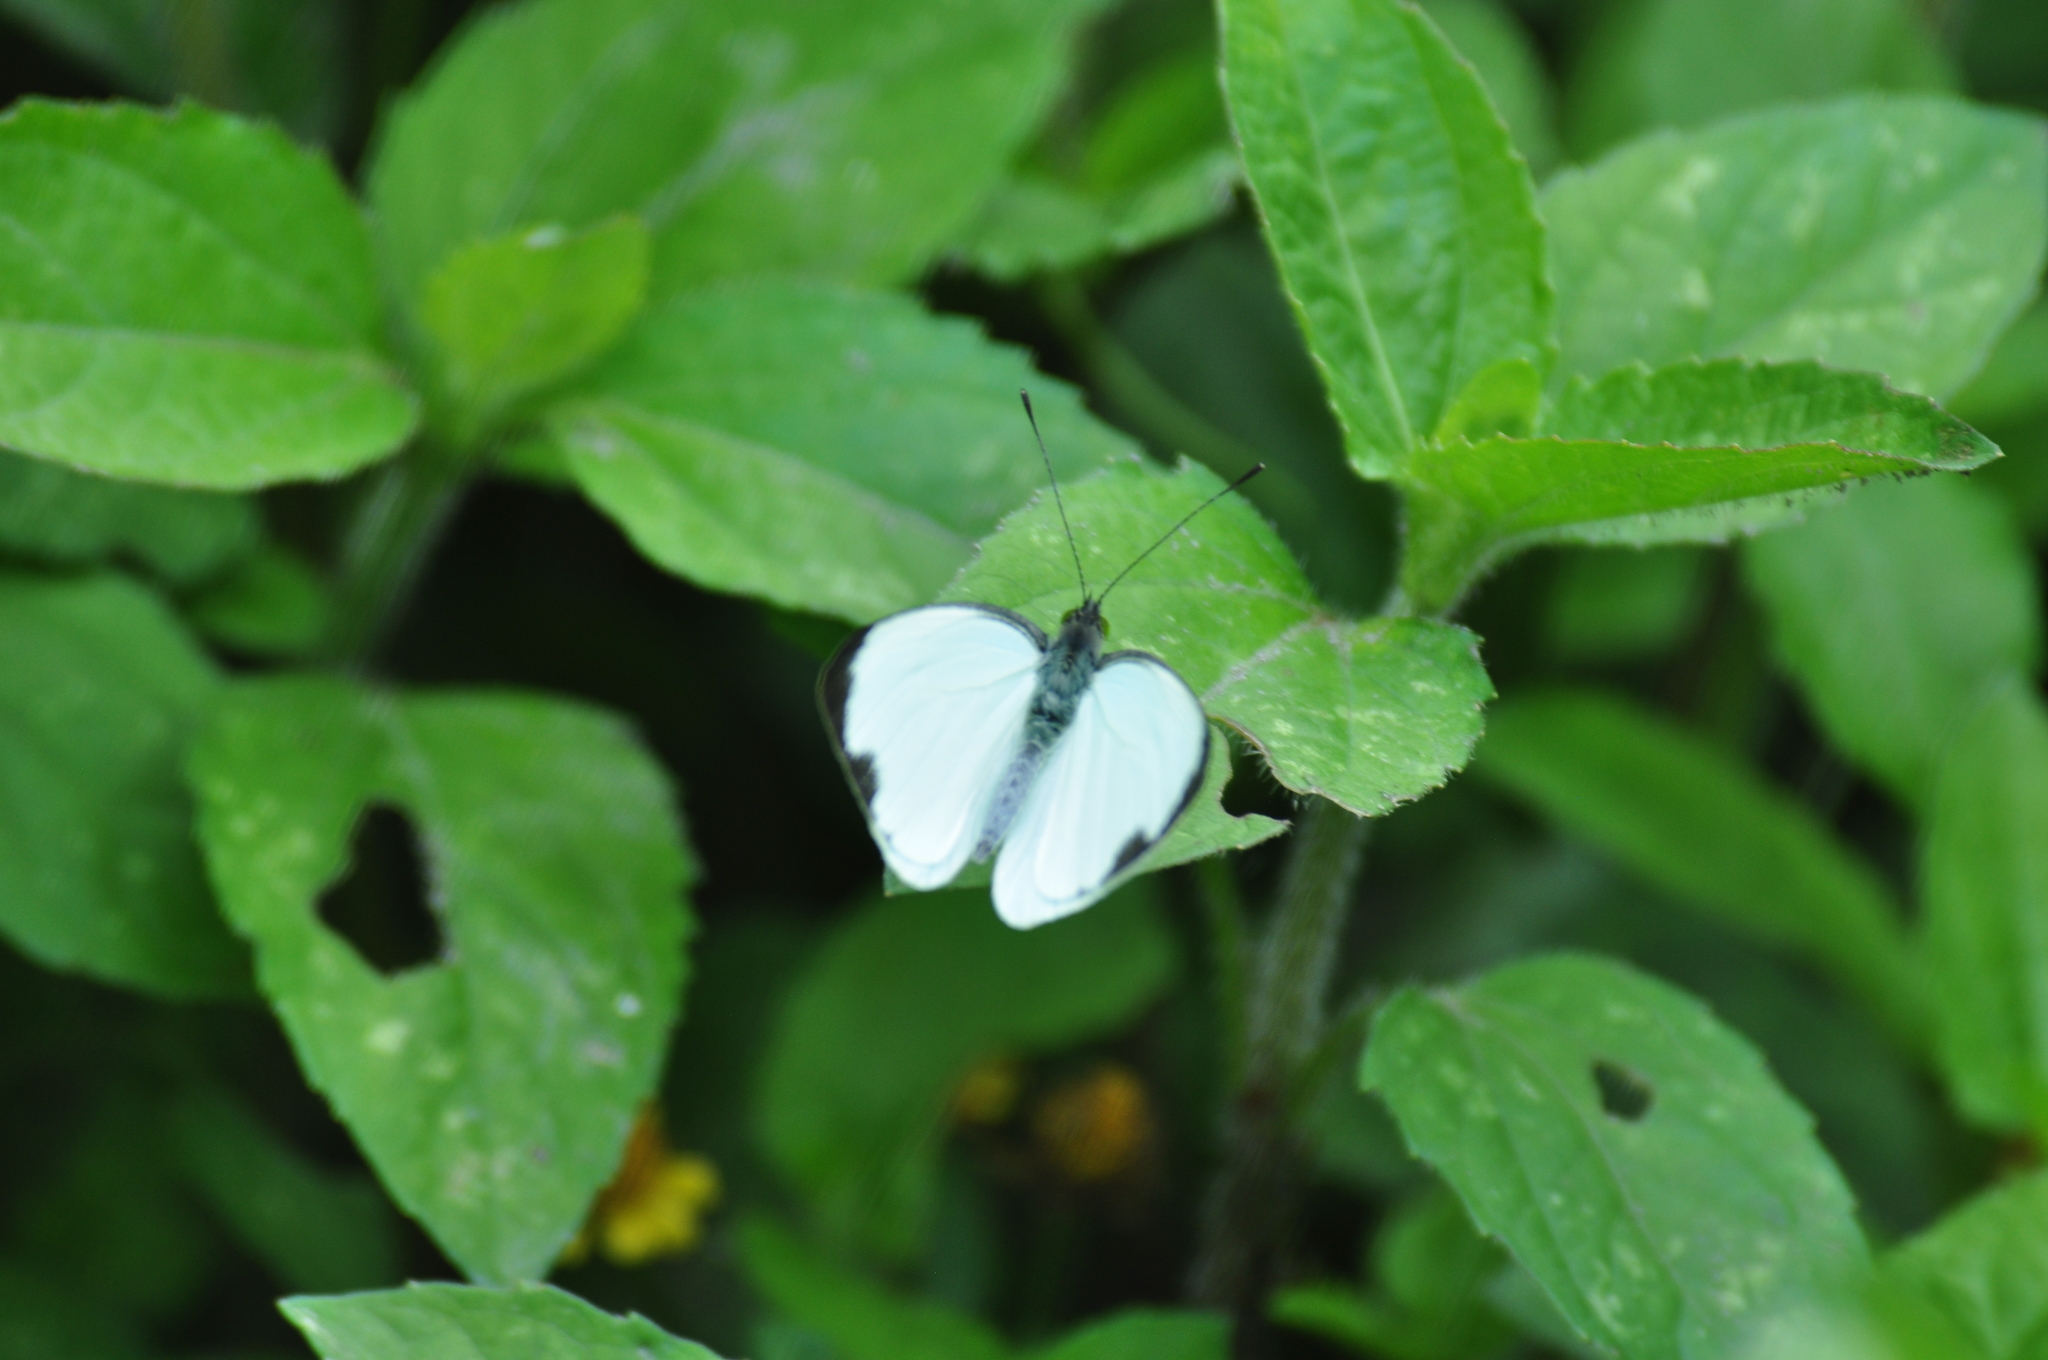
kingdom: Animalia
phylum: Arthropoda
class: Insecta
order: Lepidoptera
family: Pieridae
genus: Leptophobia
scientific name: Leptophobia aripa
